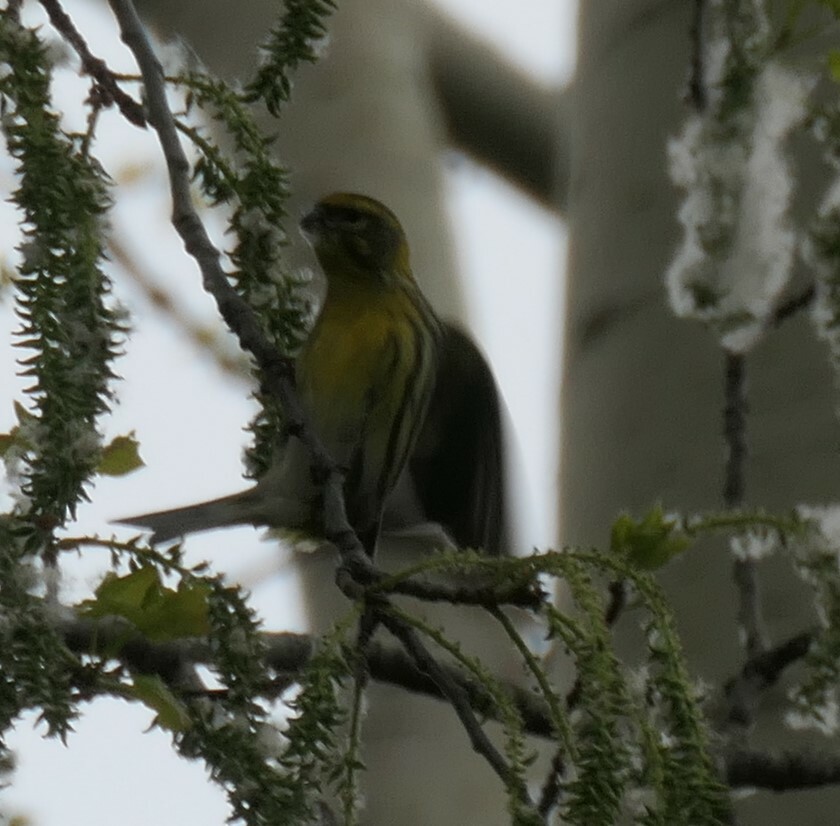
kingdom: Animalia
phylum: Chordata
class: Aves
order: Passeriformes
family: Fringillidae
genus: Spinus
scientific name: Spinus spinus
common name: Eurasian siskin
